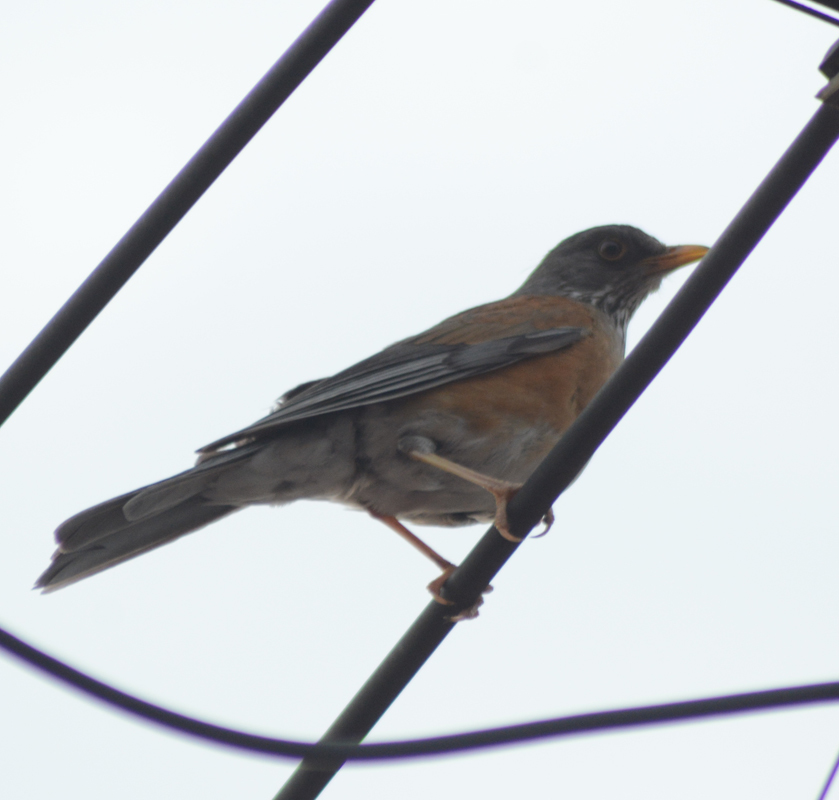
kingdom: Animalia
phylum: Chordata
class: Aves
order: Passeriformes
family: Turdidae
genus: Turdus
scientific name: Turdus rufopalliatus
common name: Rufous-backed robin
